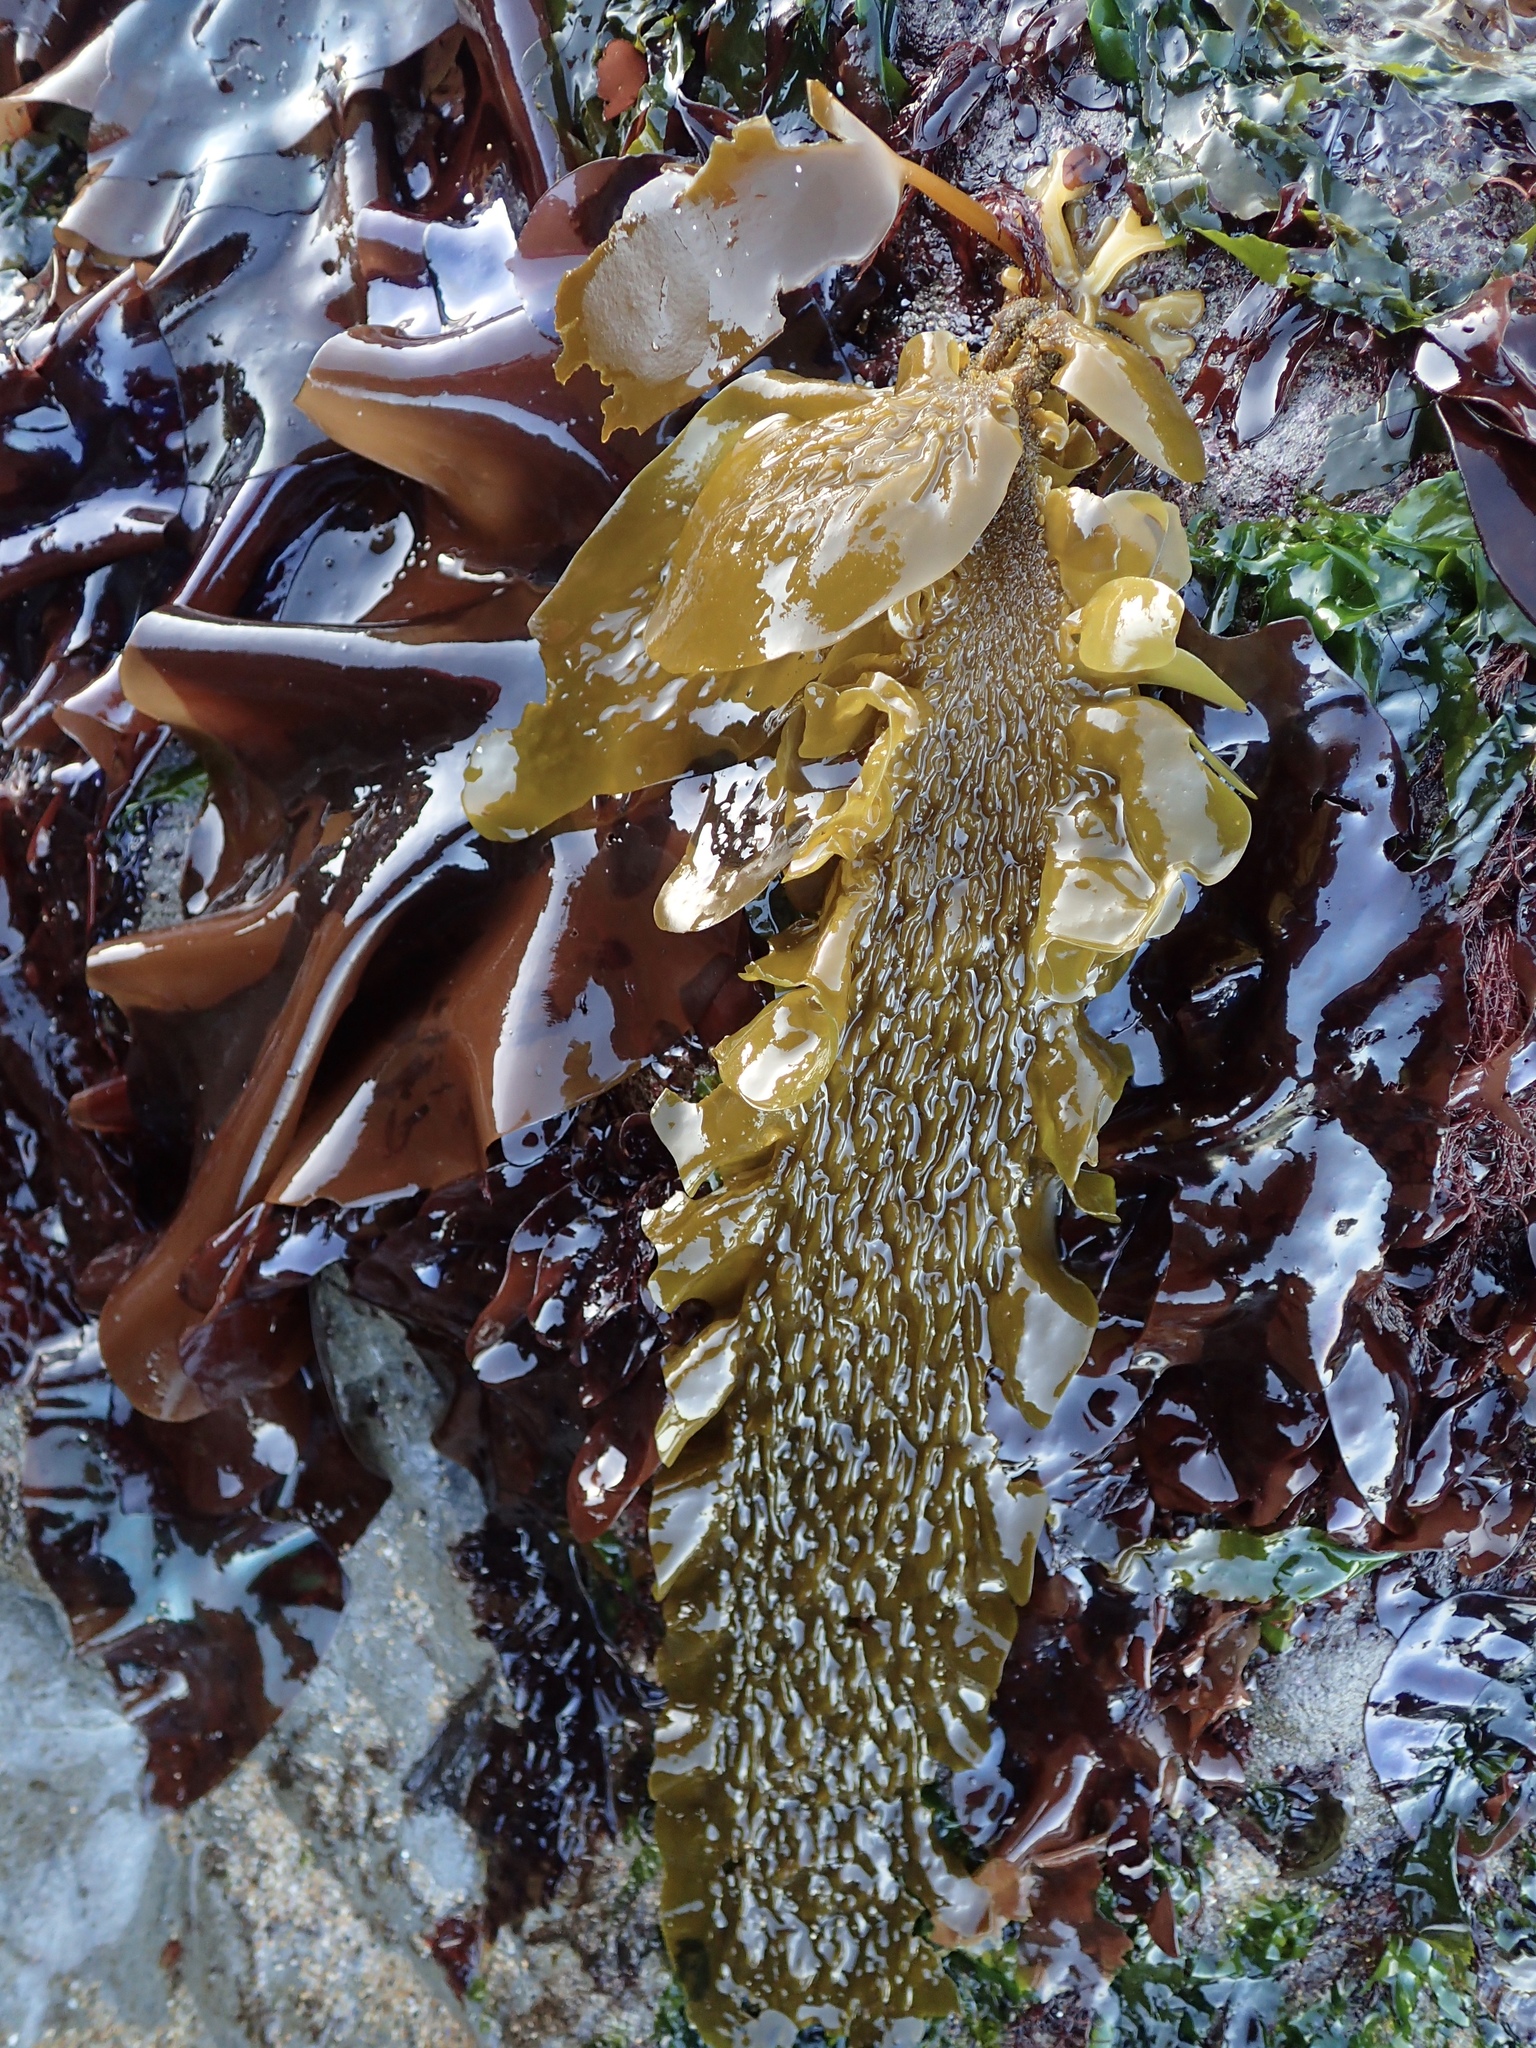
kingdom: Chromista
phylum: Ochrophyta
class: Phaeophyceae
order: Laminariales
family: Lessoniaceae
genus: Egregia
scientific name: Egregia menziesii
